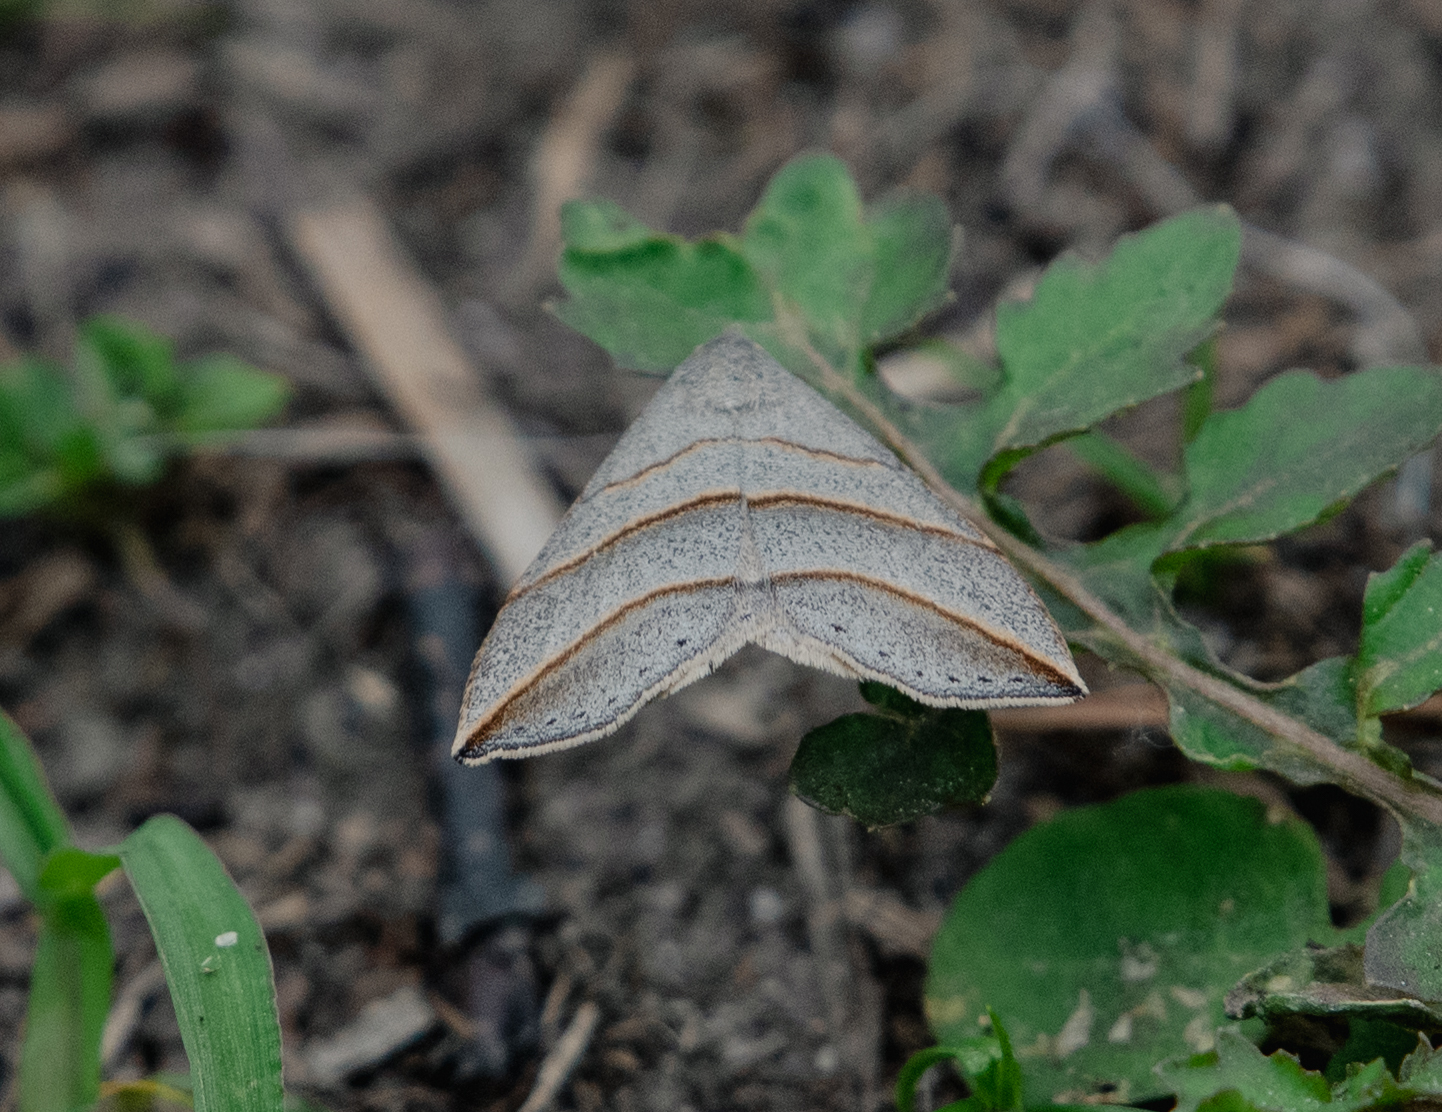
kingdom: Animalia
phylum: Arthropoda
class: Insecta
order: Lepidoptera
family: Erebidae
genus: Colobochyla
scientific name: Colobochyla salicalis
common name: Lesser belle
